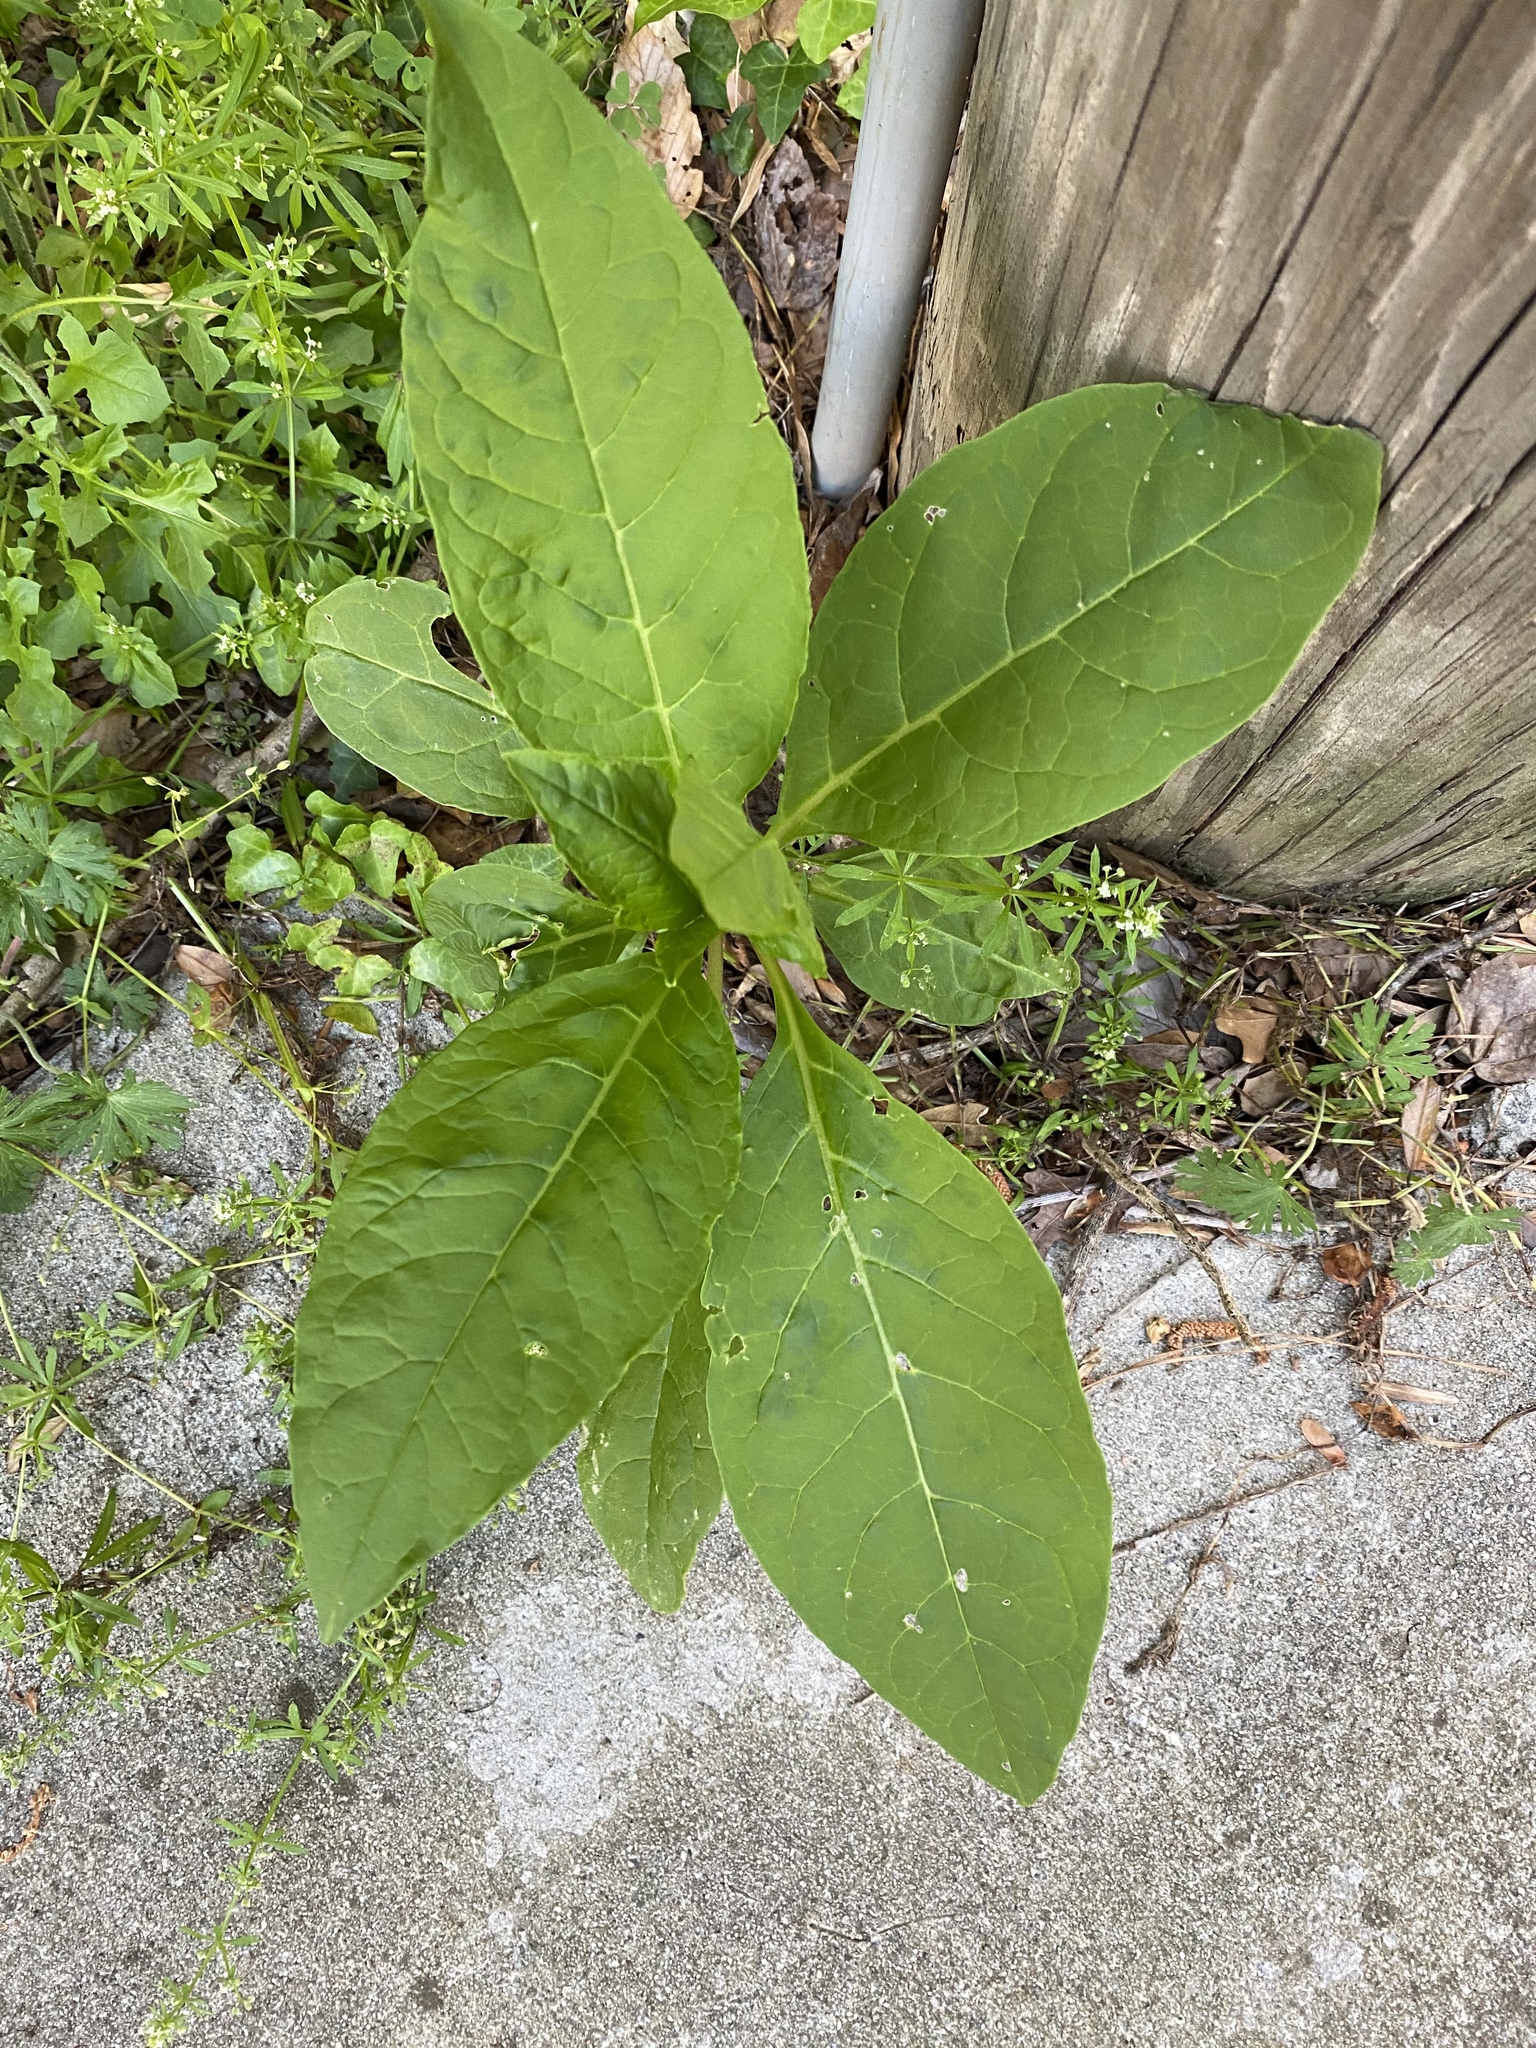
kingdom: Plantae
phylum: Tracheophyta
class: Magnoliopsida
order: Caryophyllales
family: Phytolaccaceae
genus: Phytolacca
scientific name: Phytolacca americana
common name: American pokeweed
